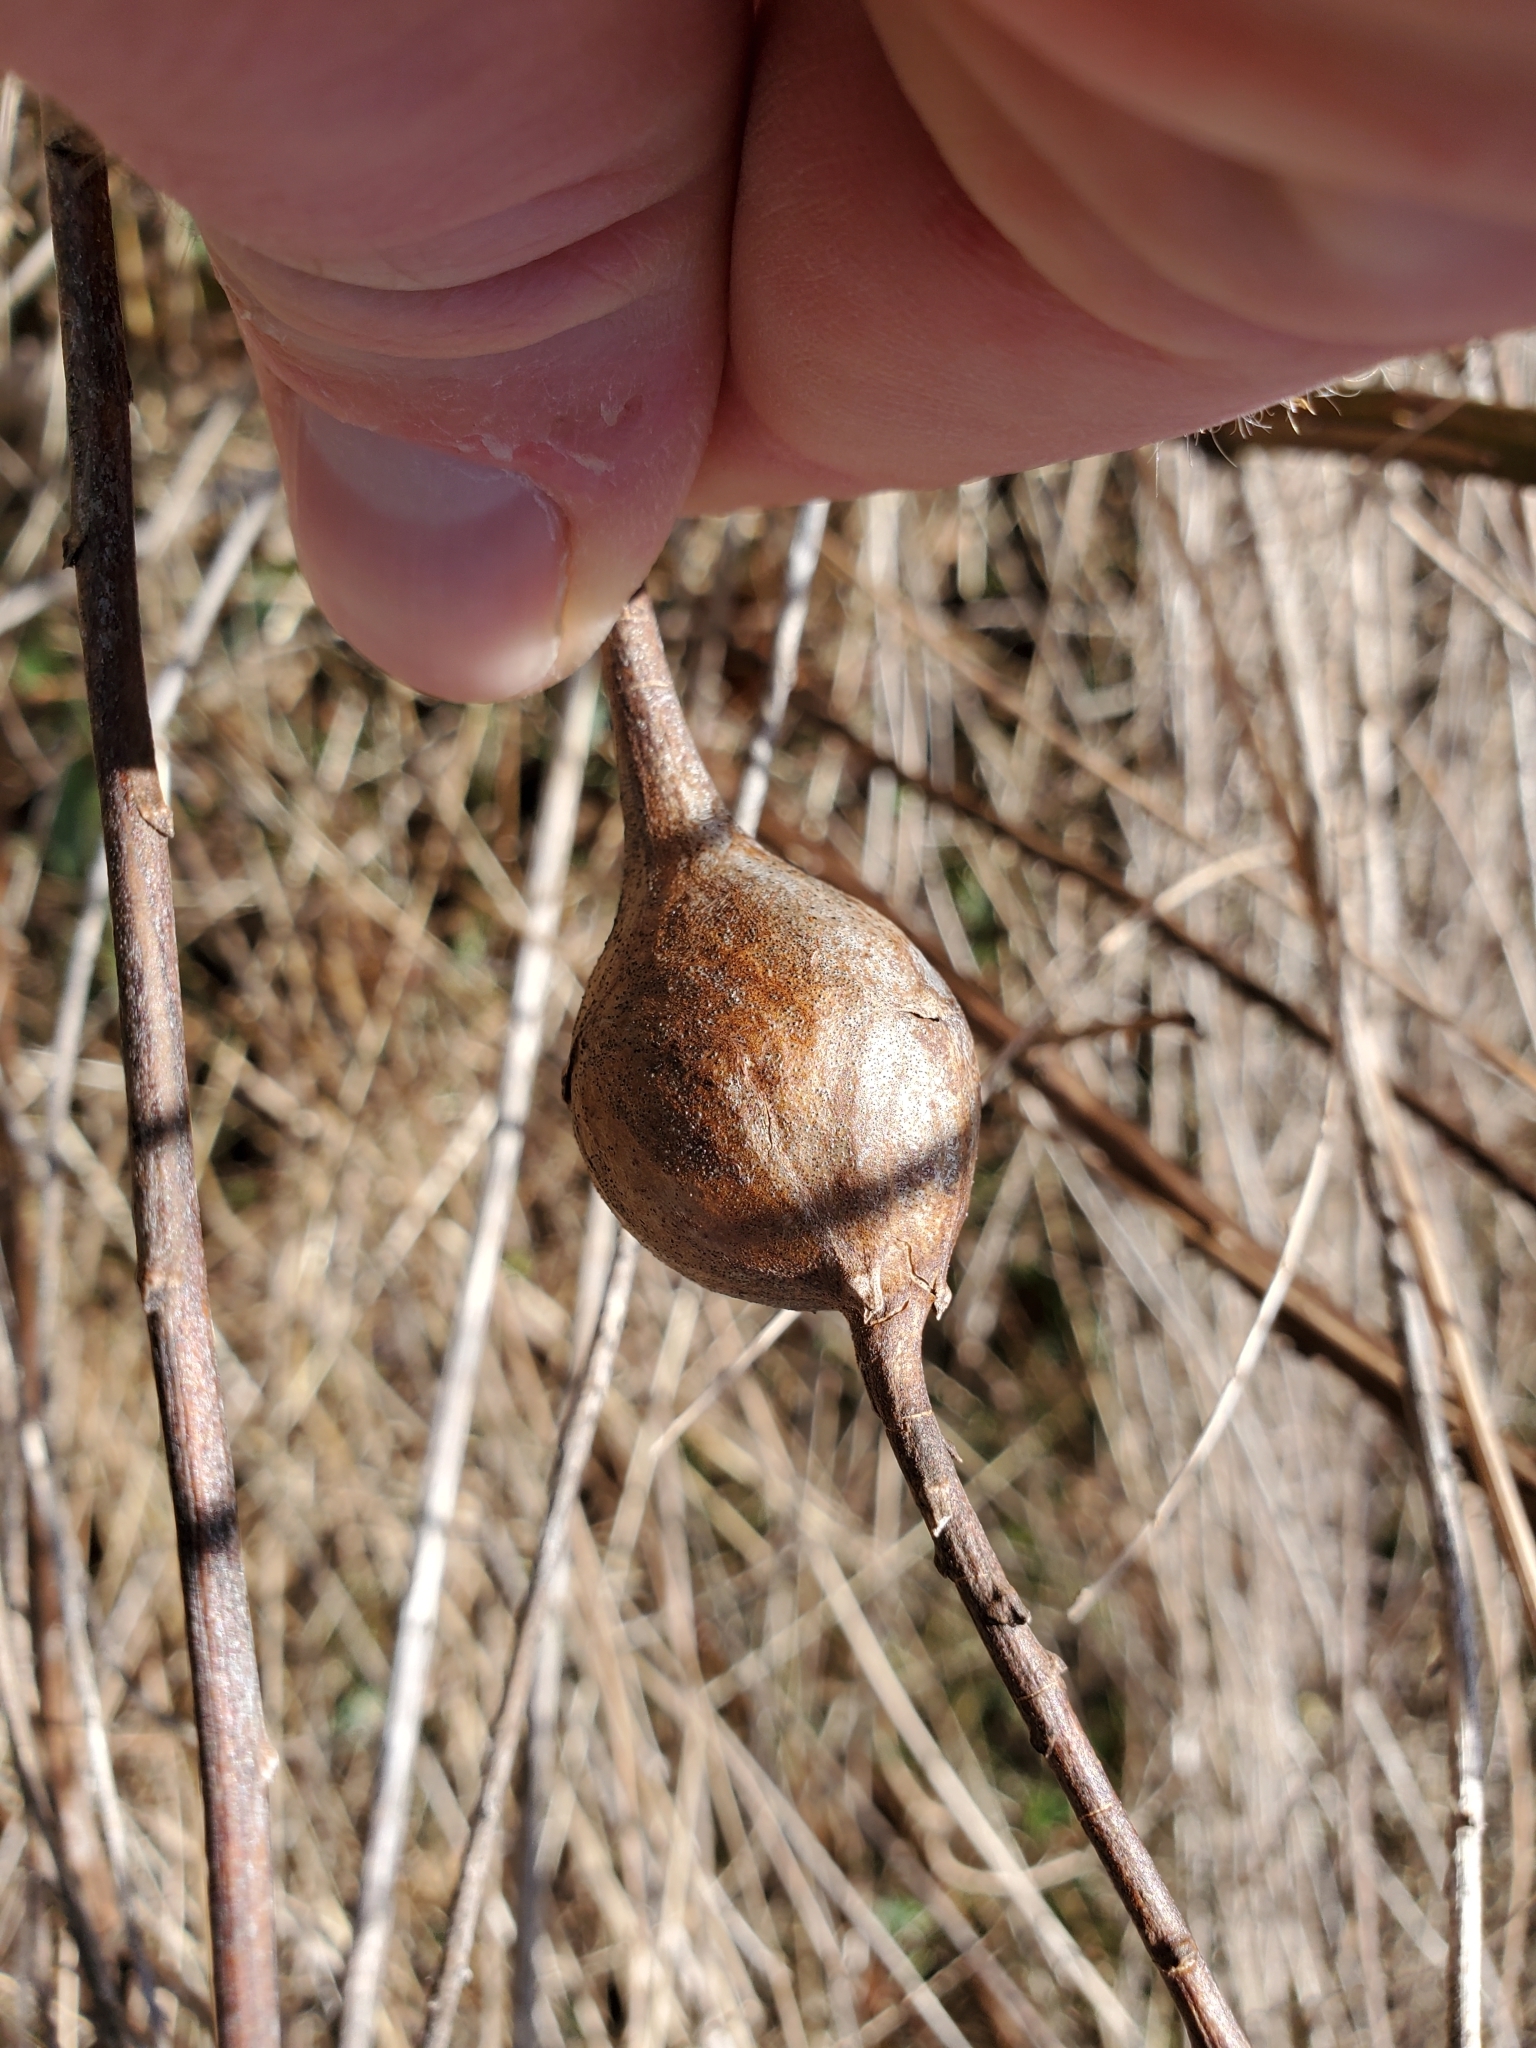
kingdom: Animalia
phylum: Arthropoda
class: Insecta
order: Diptera
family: Tephritidae
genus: Eurosta
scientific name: Eurosta solidaginis
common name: Goldenrod gall fly
